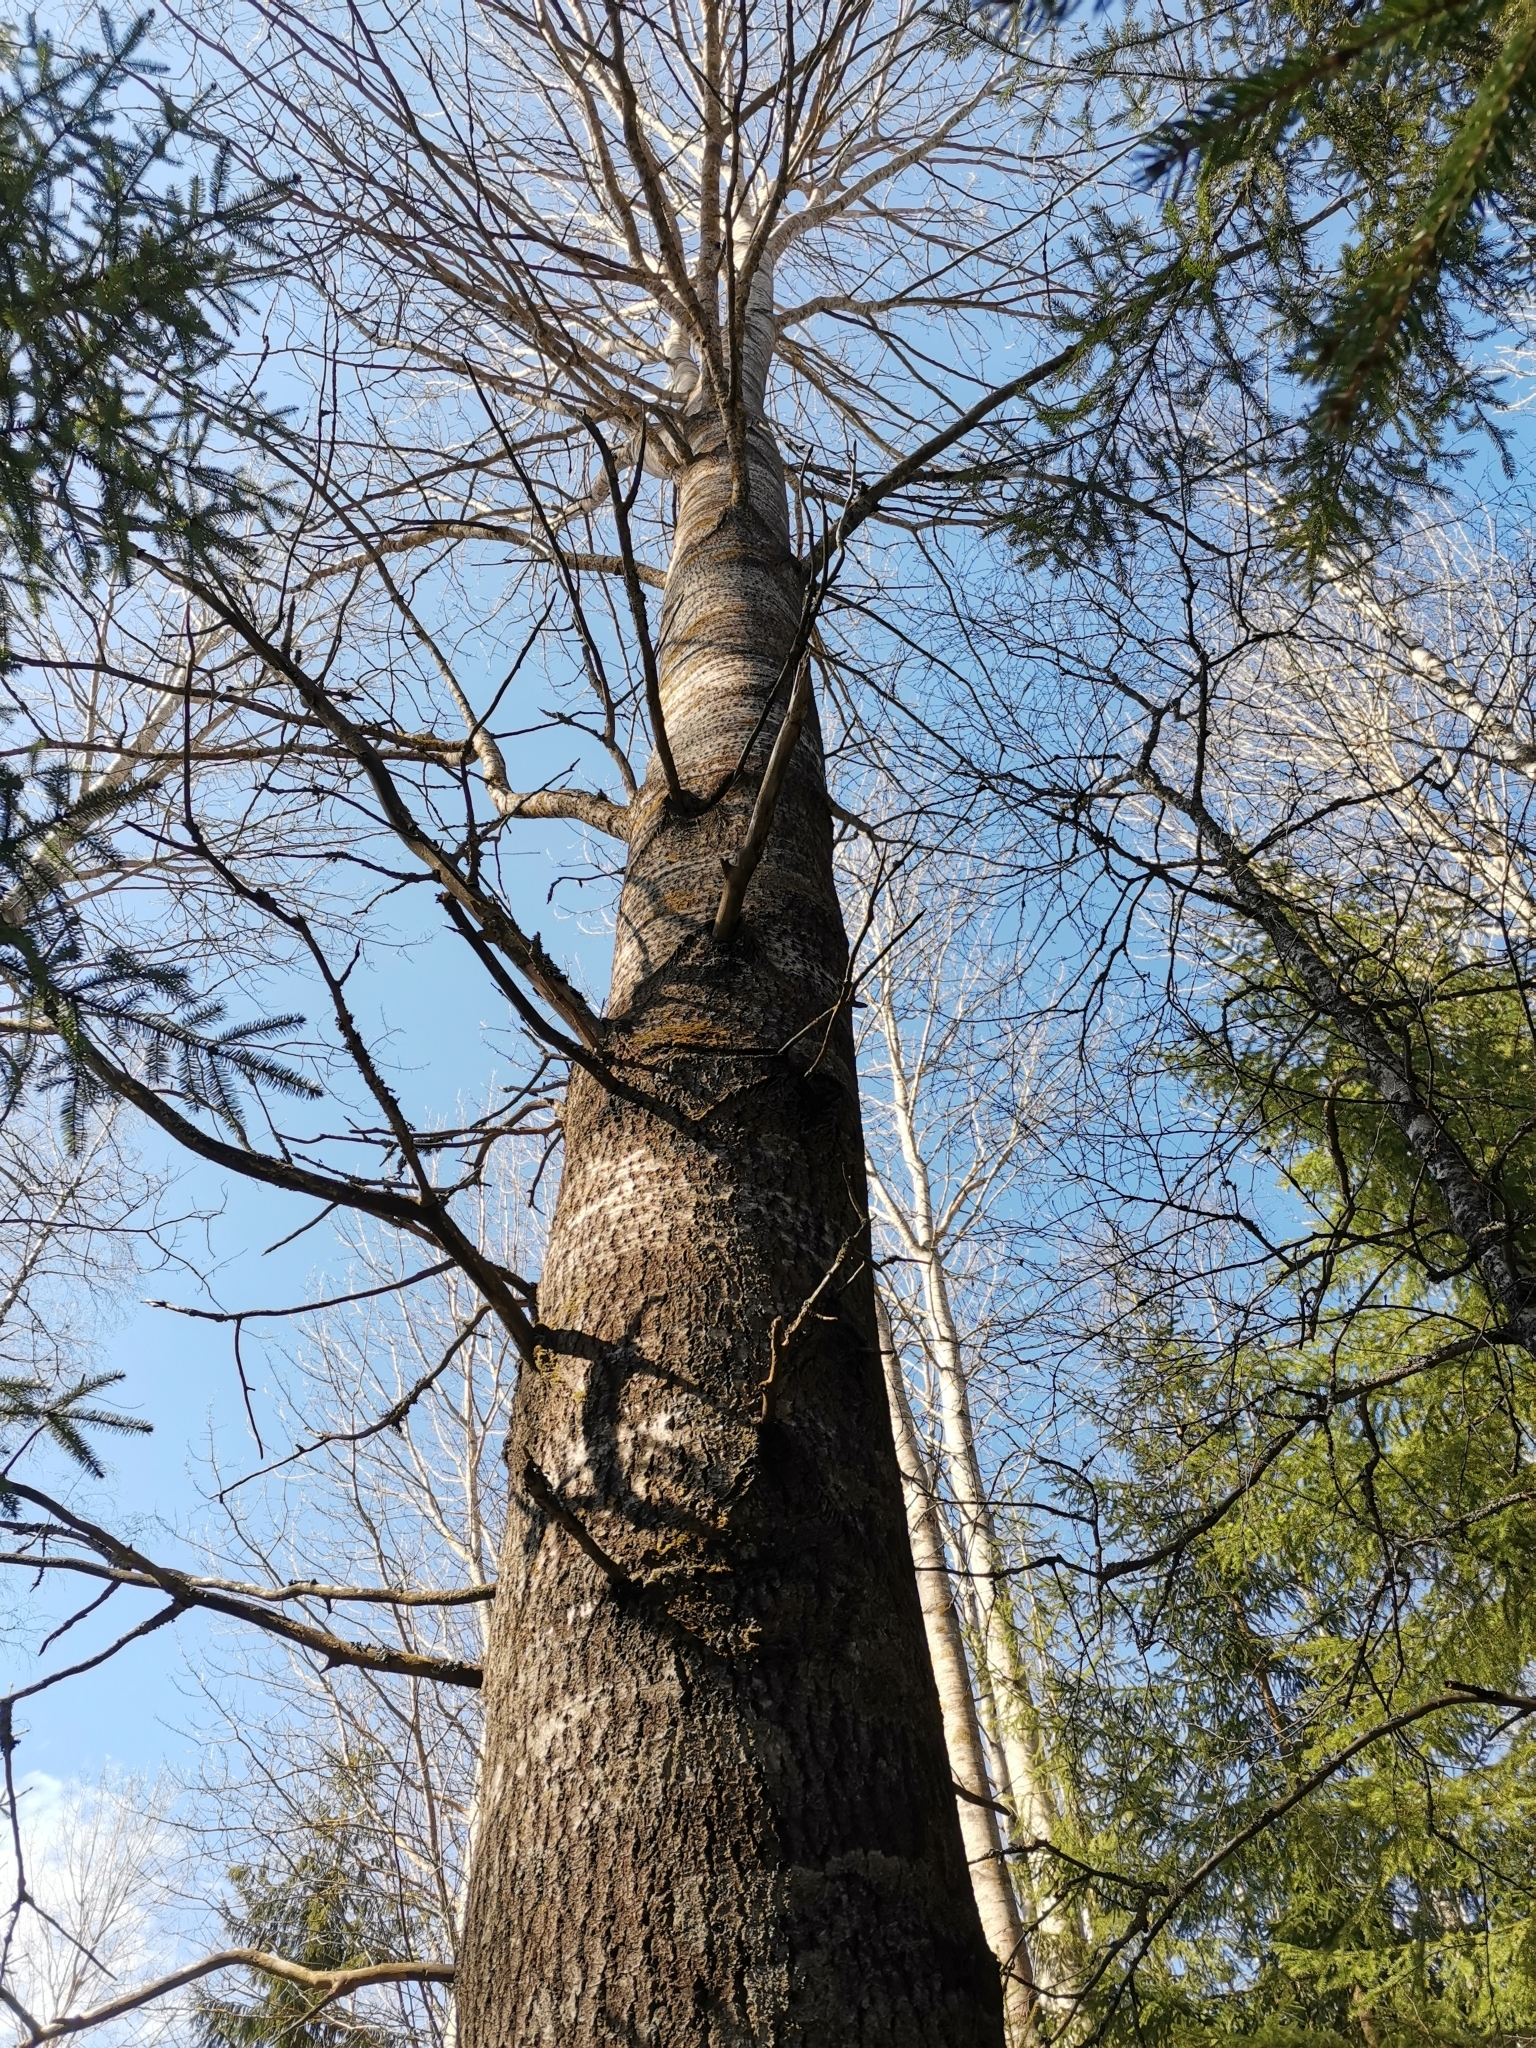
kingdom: Animalia
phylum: Chordata
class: Mammalia
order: Rodentia
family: Sciuridae
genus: Pteromys
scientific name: Pteromys volans
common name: Siberian flying squirrel
